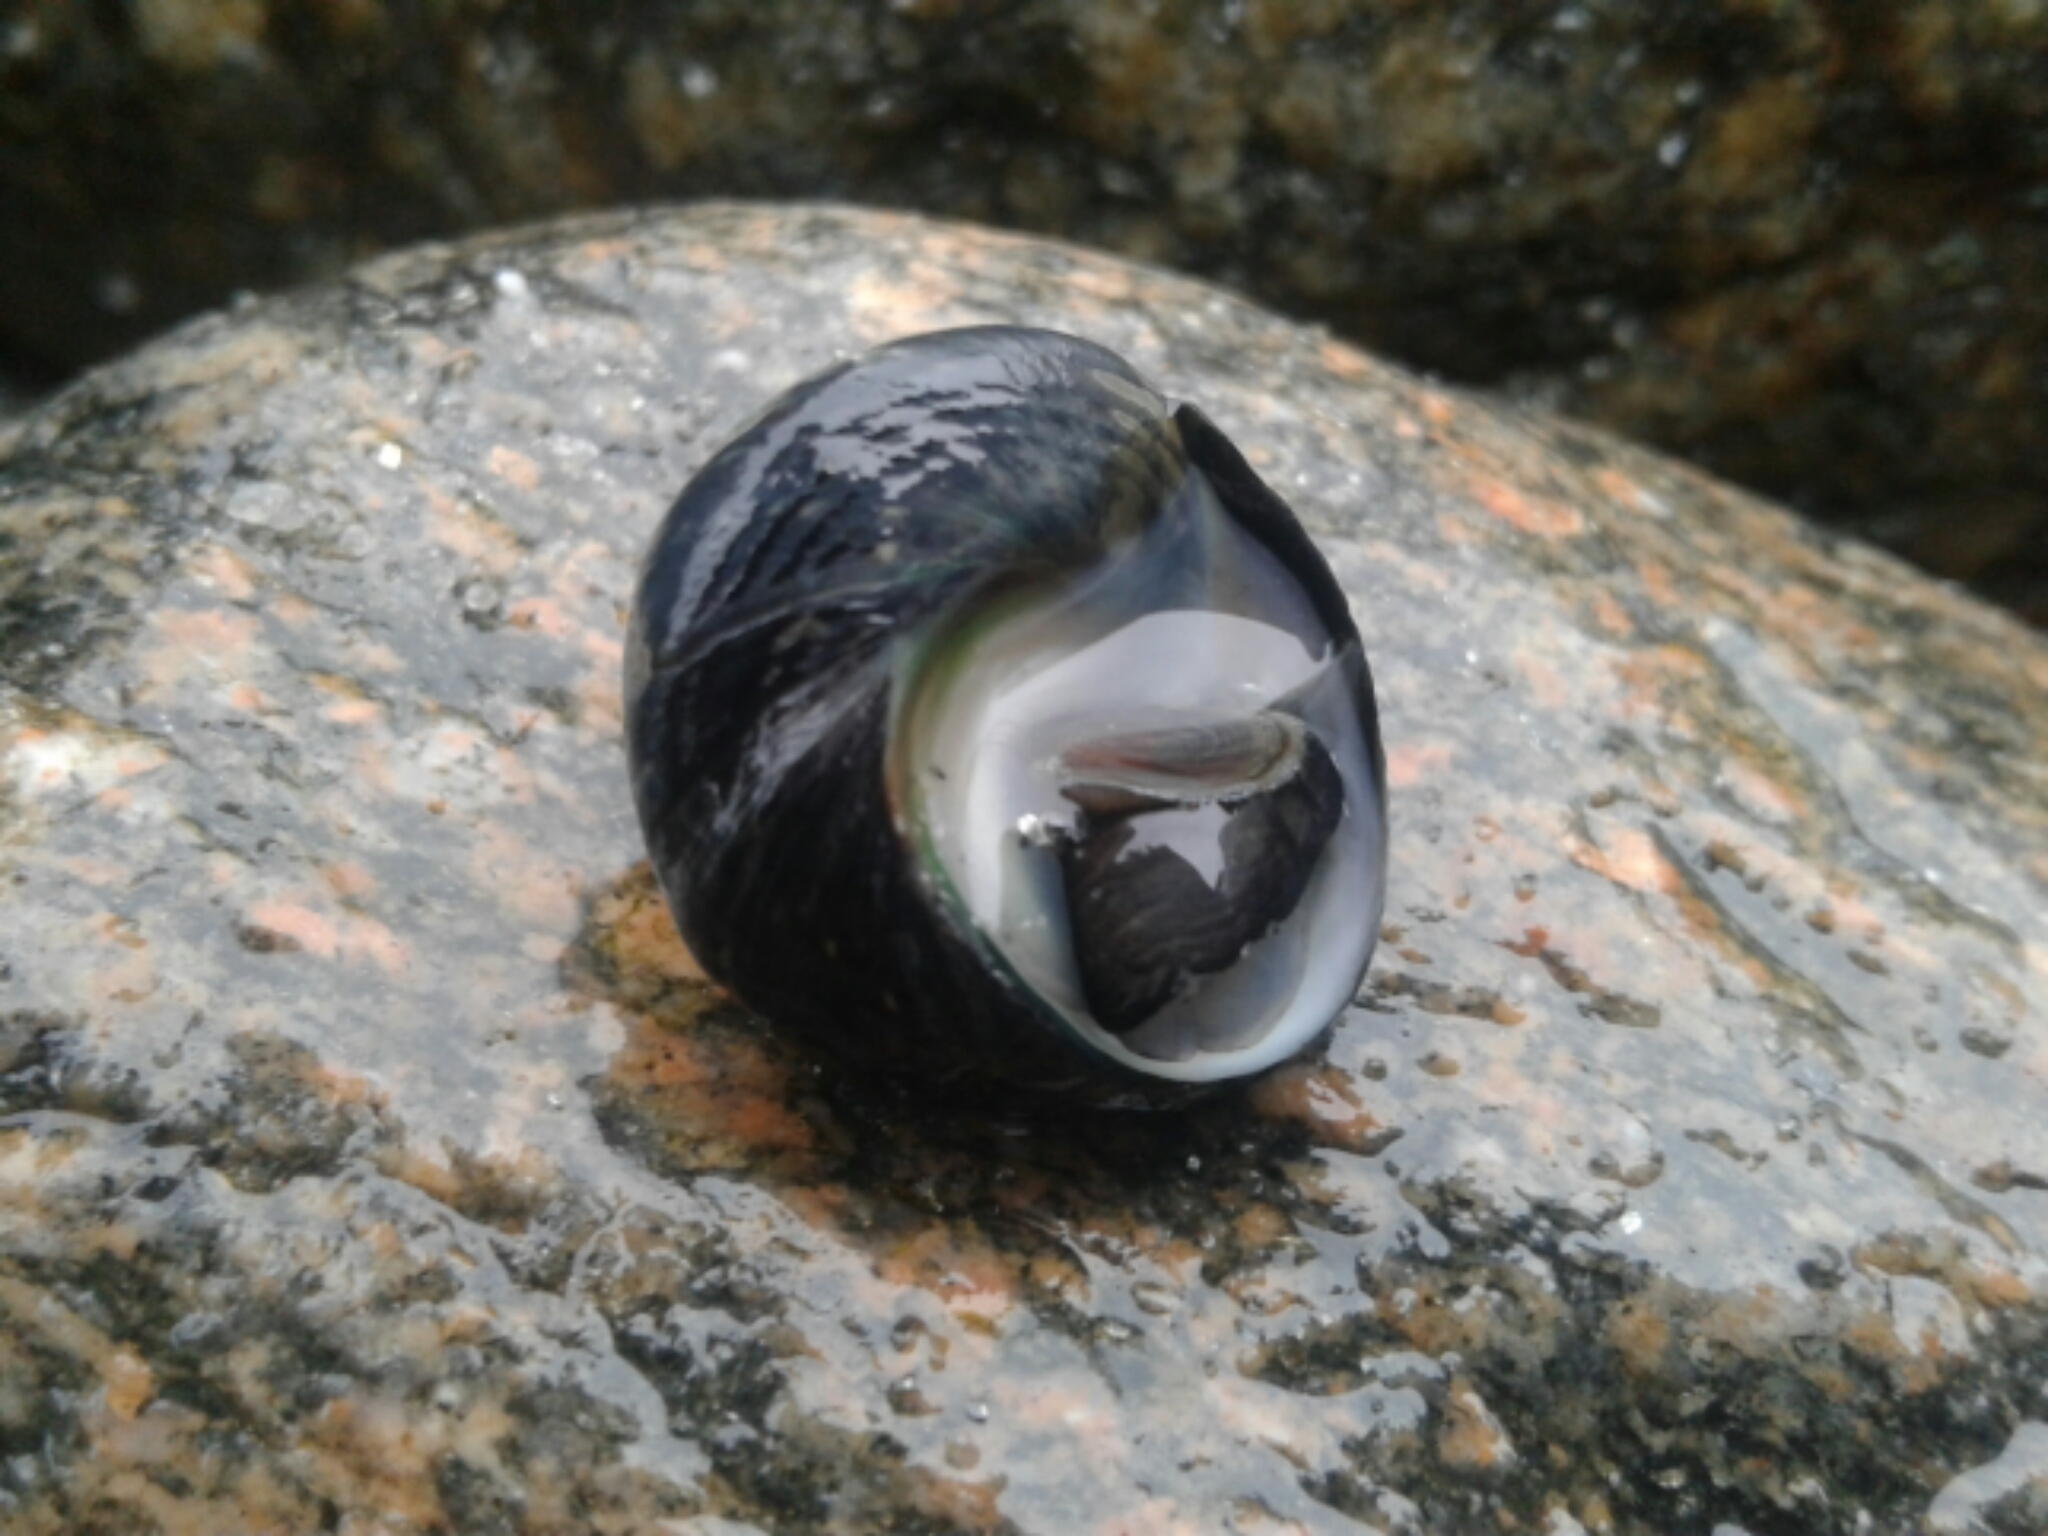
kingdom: Animalia
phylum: Mollusca
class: Gastropoda
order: Trochida
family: Trochidae
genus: Diloma
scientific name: Diloma zelandicum
